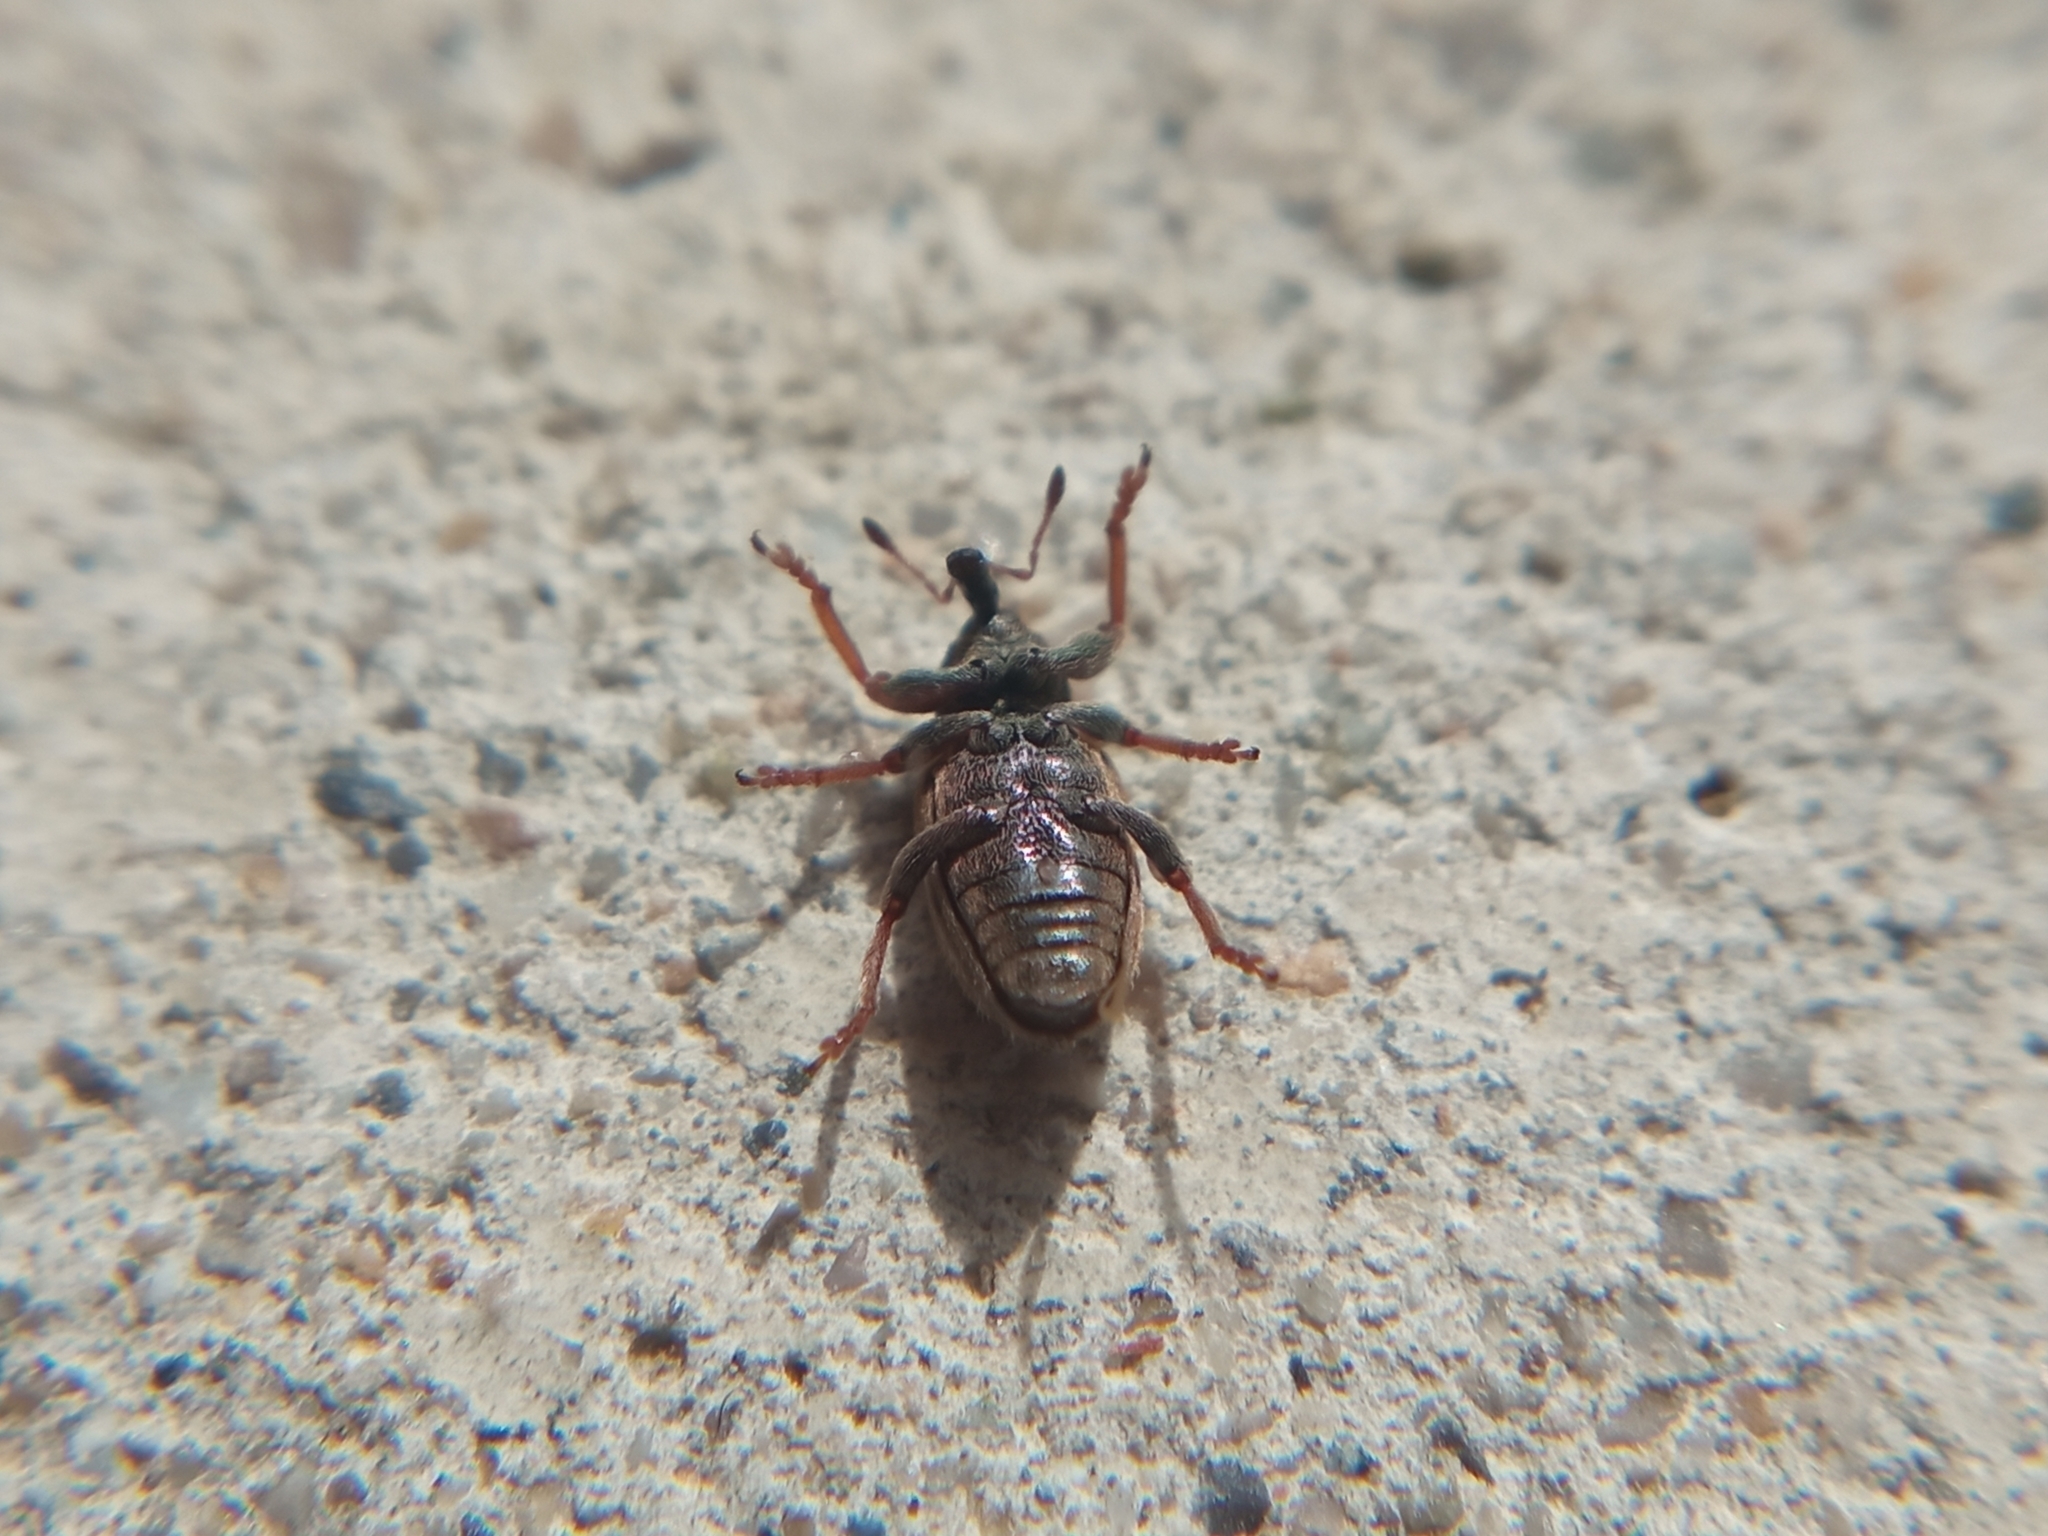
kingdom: Animalia
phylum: Arthropoda
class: Insecta
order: Coleoptera
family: Curculionidae
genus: Hypera
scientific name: Hypera nigrirostris
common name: Black-beaked green weevil
